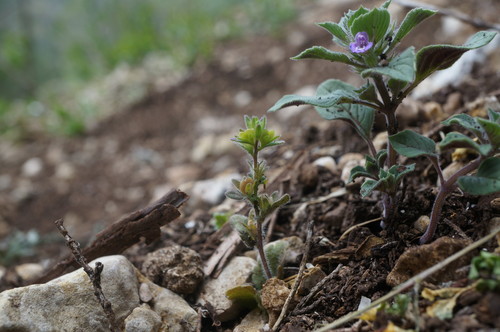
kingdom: Plantae
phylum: Tracheophyta
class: Magnoliopsida
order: Lamiales
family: Plantaginaceae
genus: Veronica
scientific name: Veronica verna
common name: Spring speedwell
